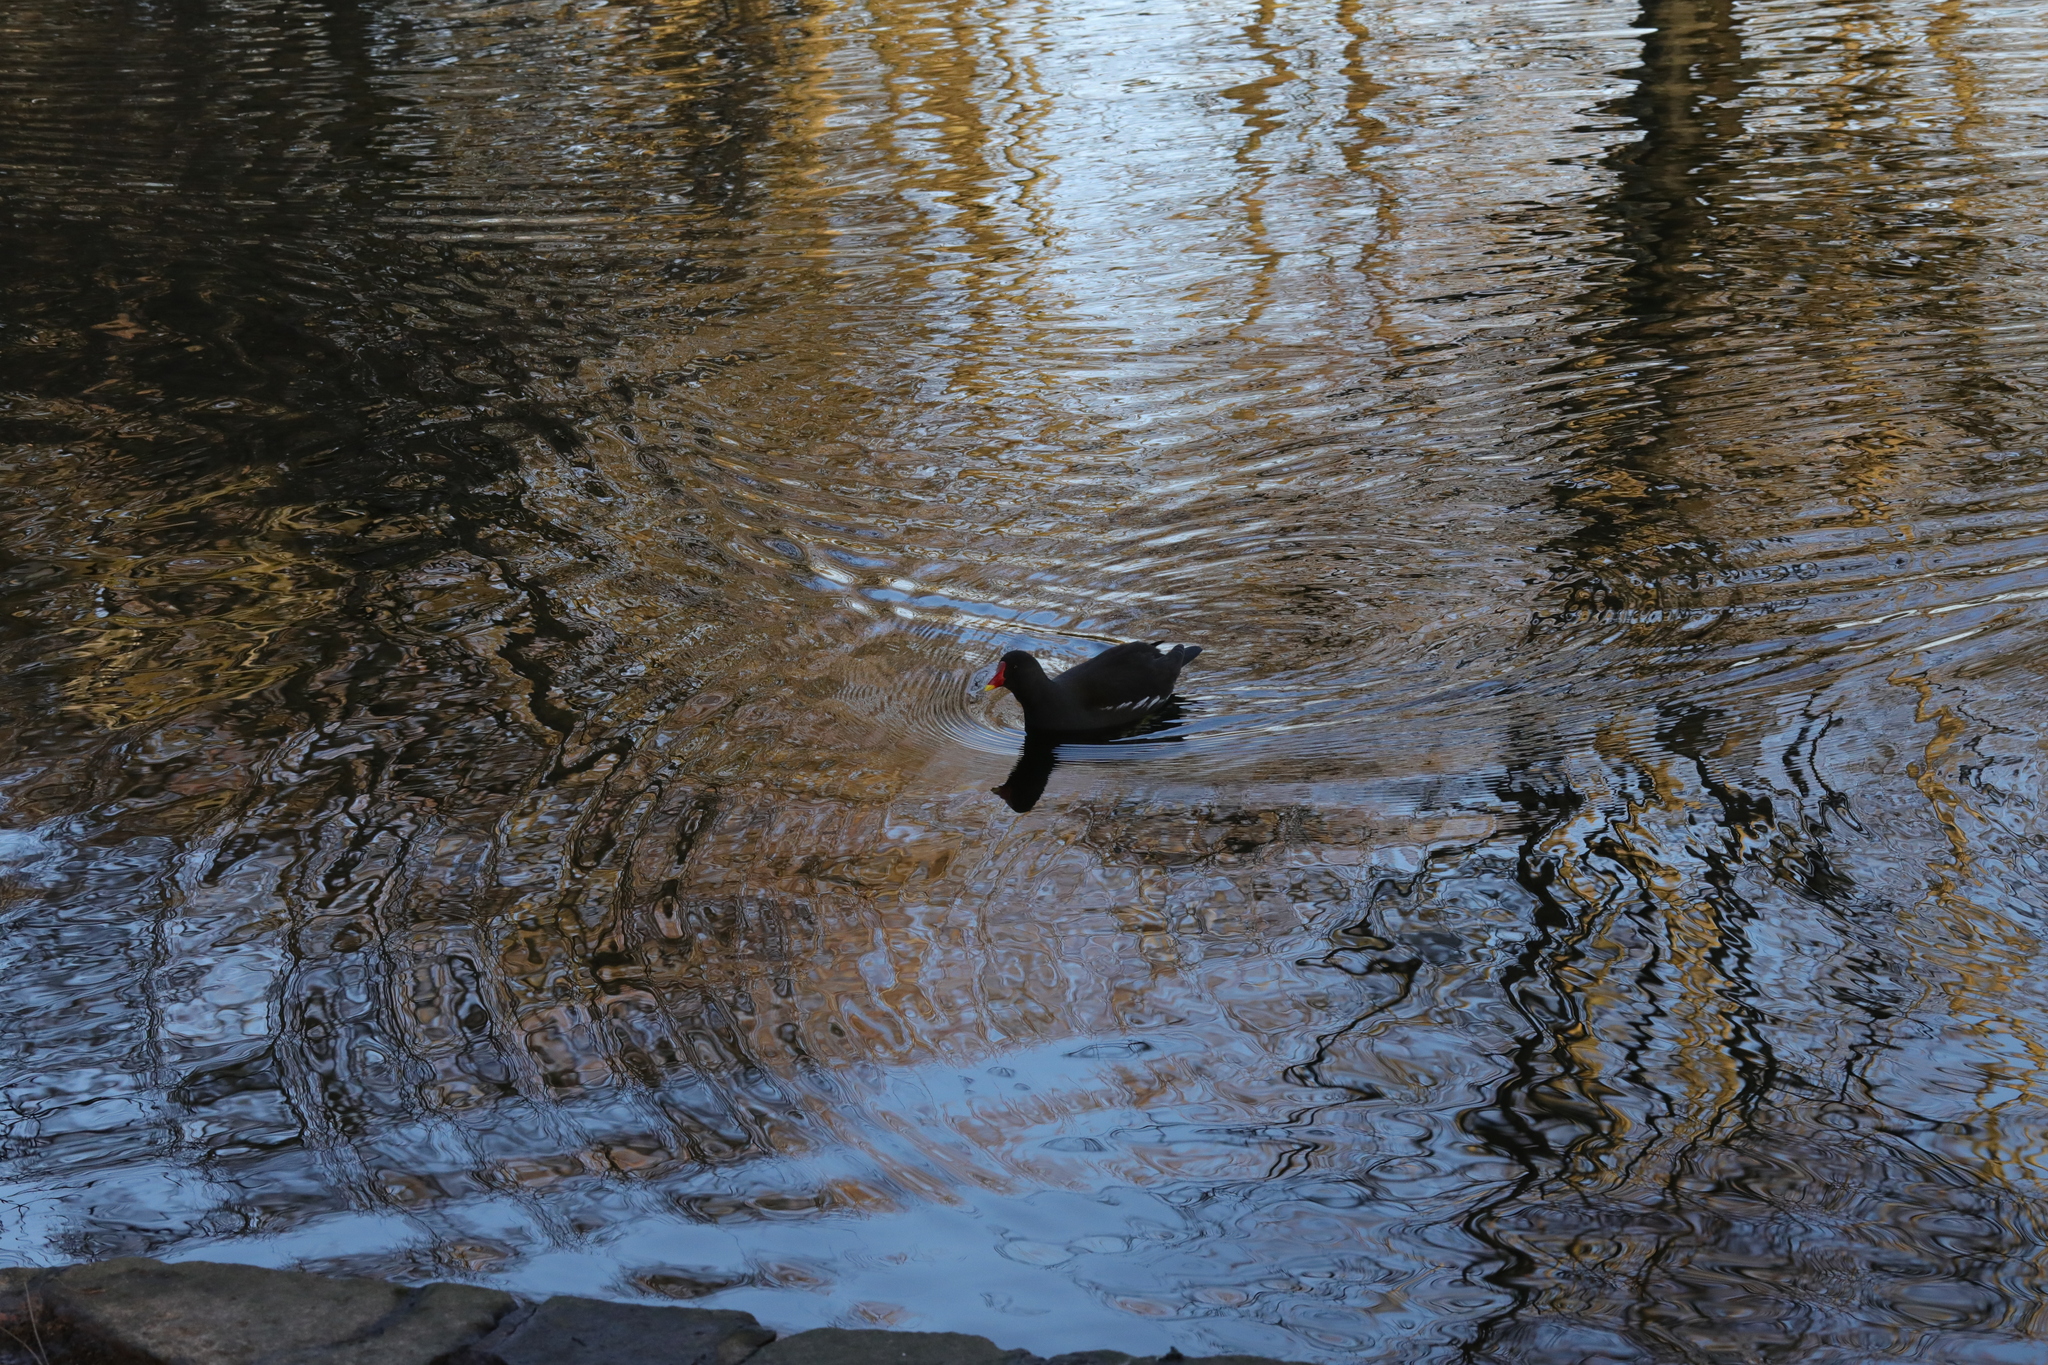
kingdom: Animalia
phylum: Chordata
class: Aves
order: Gruiformes
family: Rallidae
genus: Gallinula
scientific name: Gallinula chloropus
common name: Common moorhen
